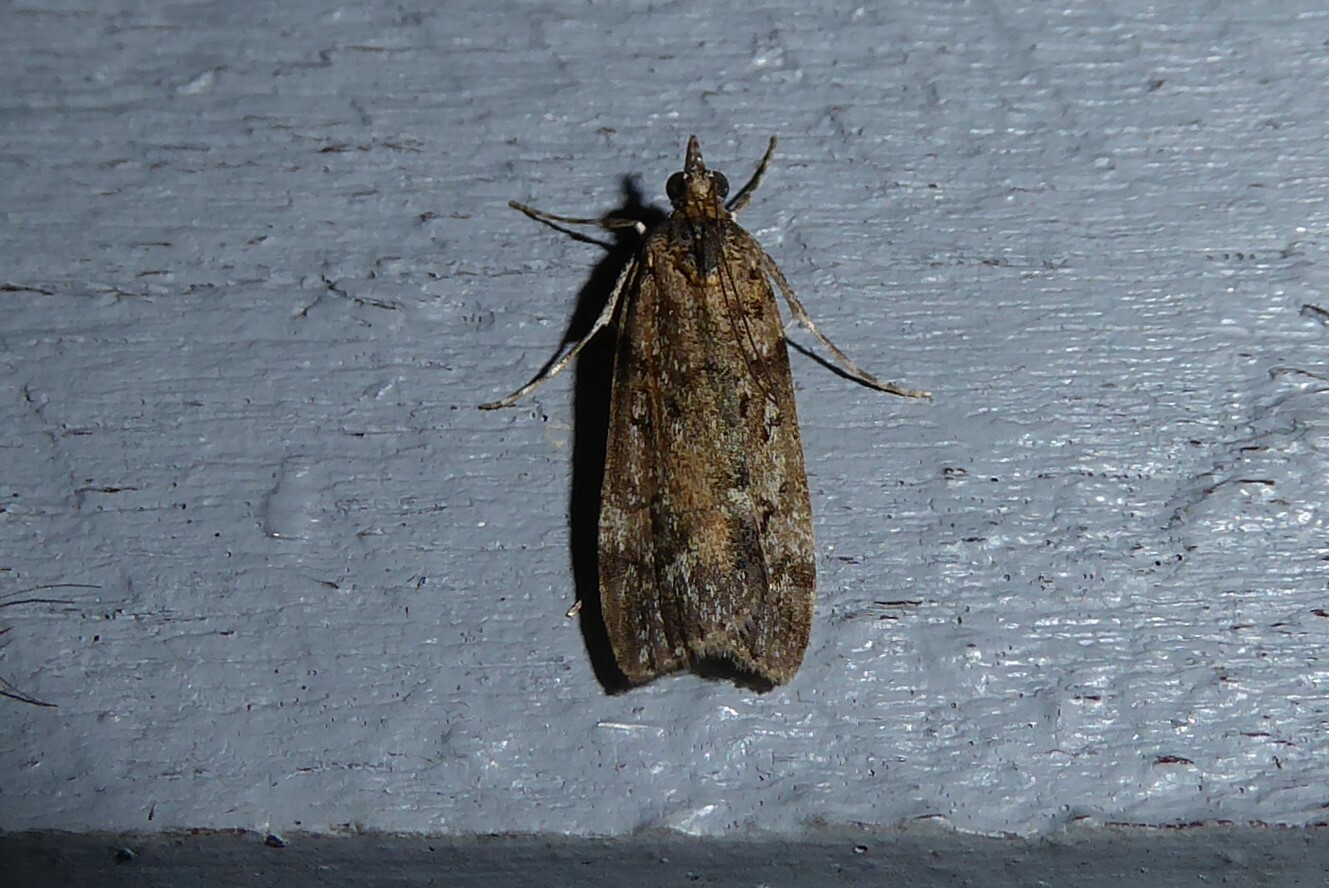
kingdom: Animalia
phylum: Arthropoda
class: Insecta
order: Lepidoptera
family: Crambidae
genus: Eudonia
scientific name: Eudonia submarginalis
